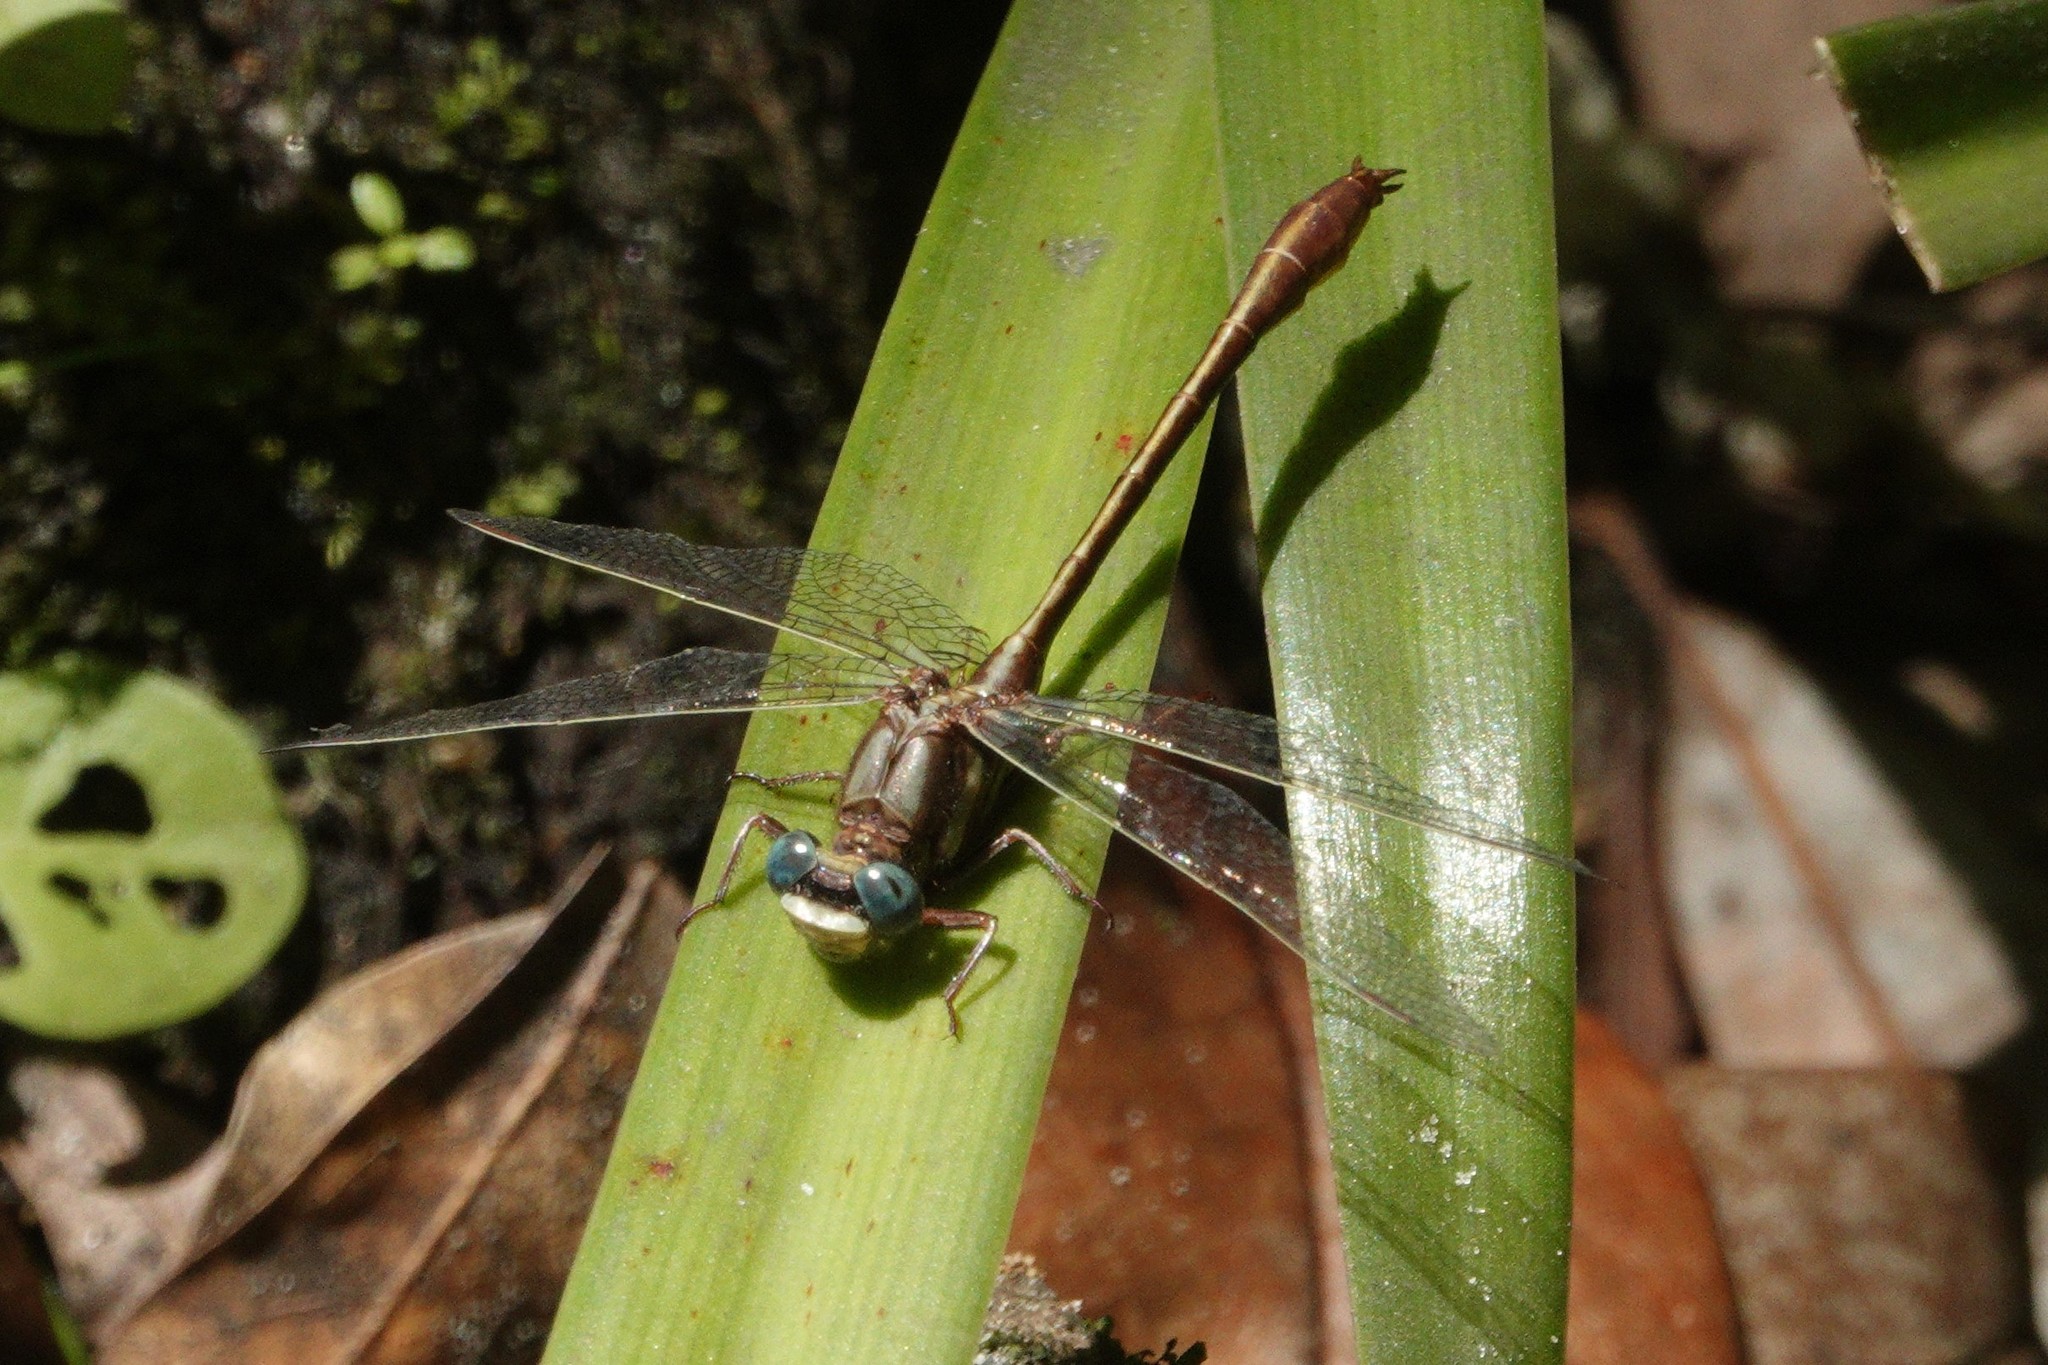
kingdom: Animalia
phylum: Arthropoda
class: Insecta
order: Odonata
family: Gomphidae
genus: Phanogomphus
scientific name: Phanogomphus minutus
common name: Cypress clubtail
